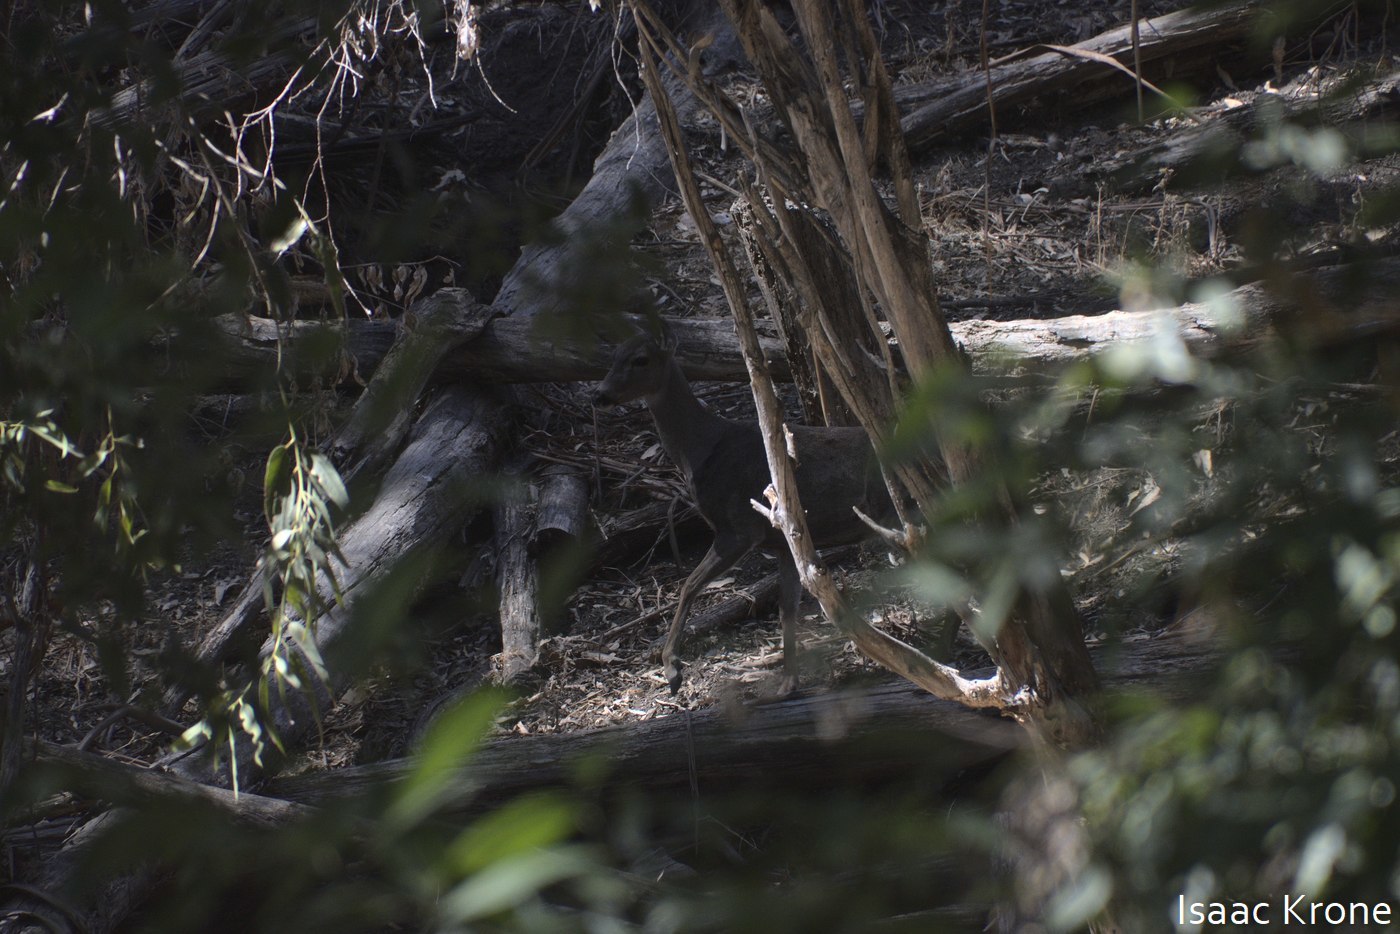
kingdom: Animalia
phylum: Chordata
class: Mammalia
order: Artiodactyla
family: Cervidae
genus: Odocoileus
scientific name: Odocoileus hemionus
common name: Mule deer
